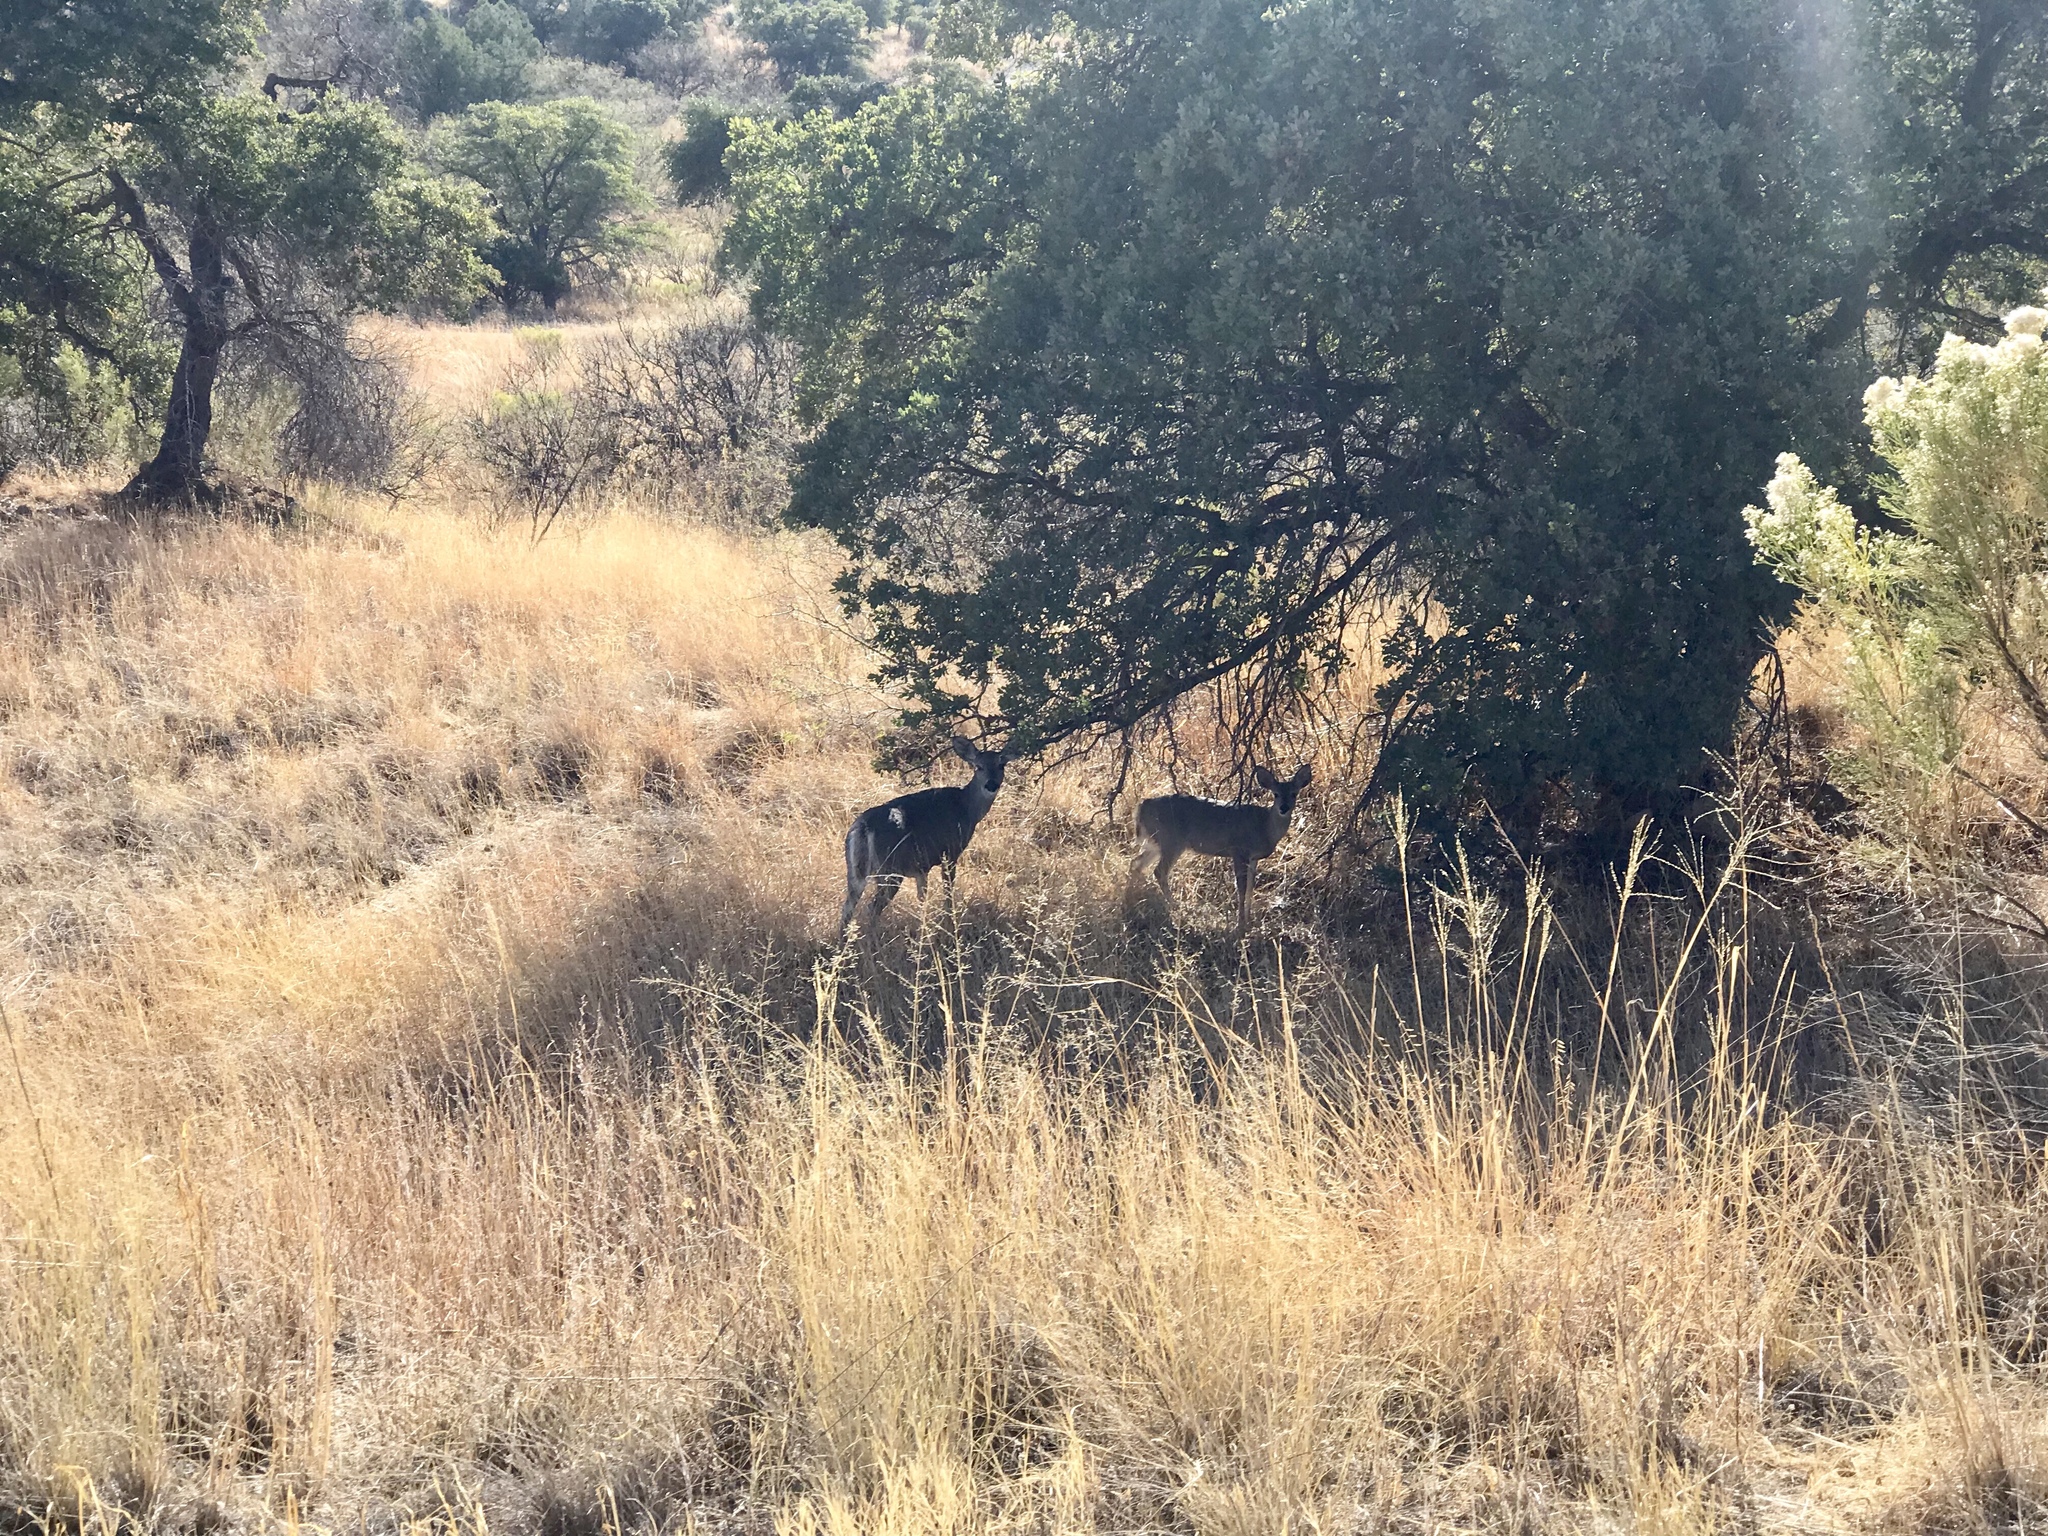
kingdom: Animalia
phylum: Chordata
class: Mammalia
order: Artiodactyla
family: Cervidae
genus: Odocoileus
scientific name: Odocoileus virginianus
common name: White-tailed deer
